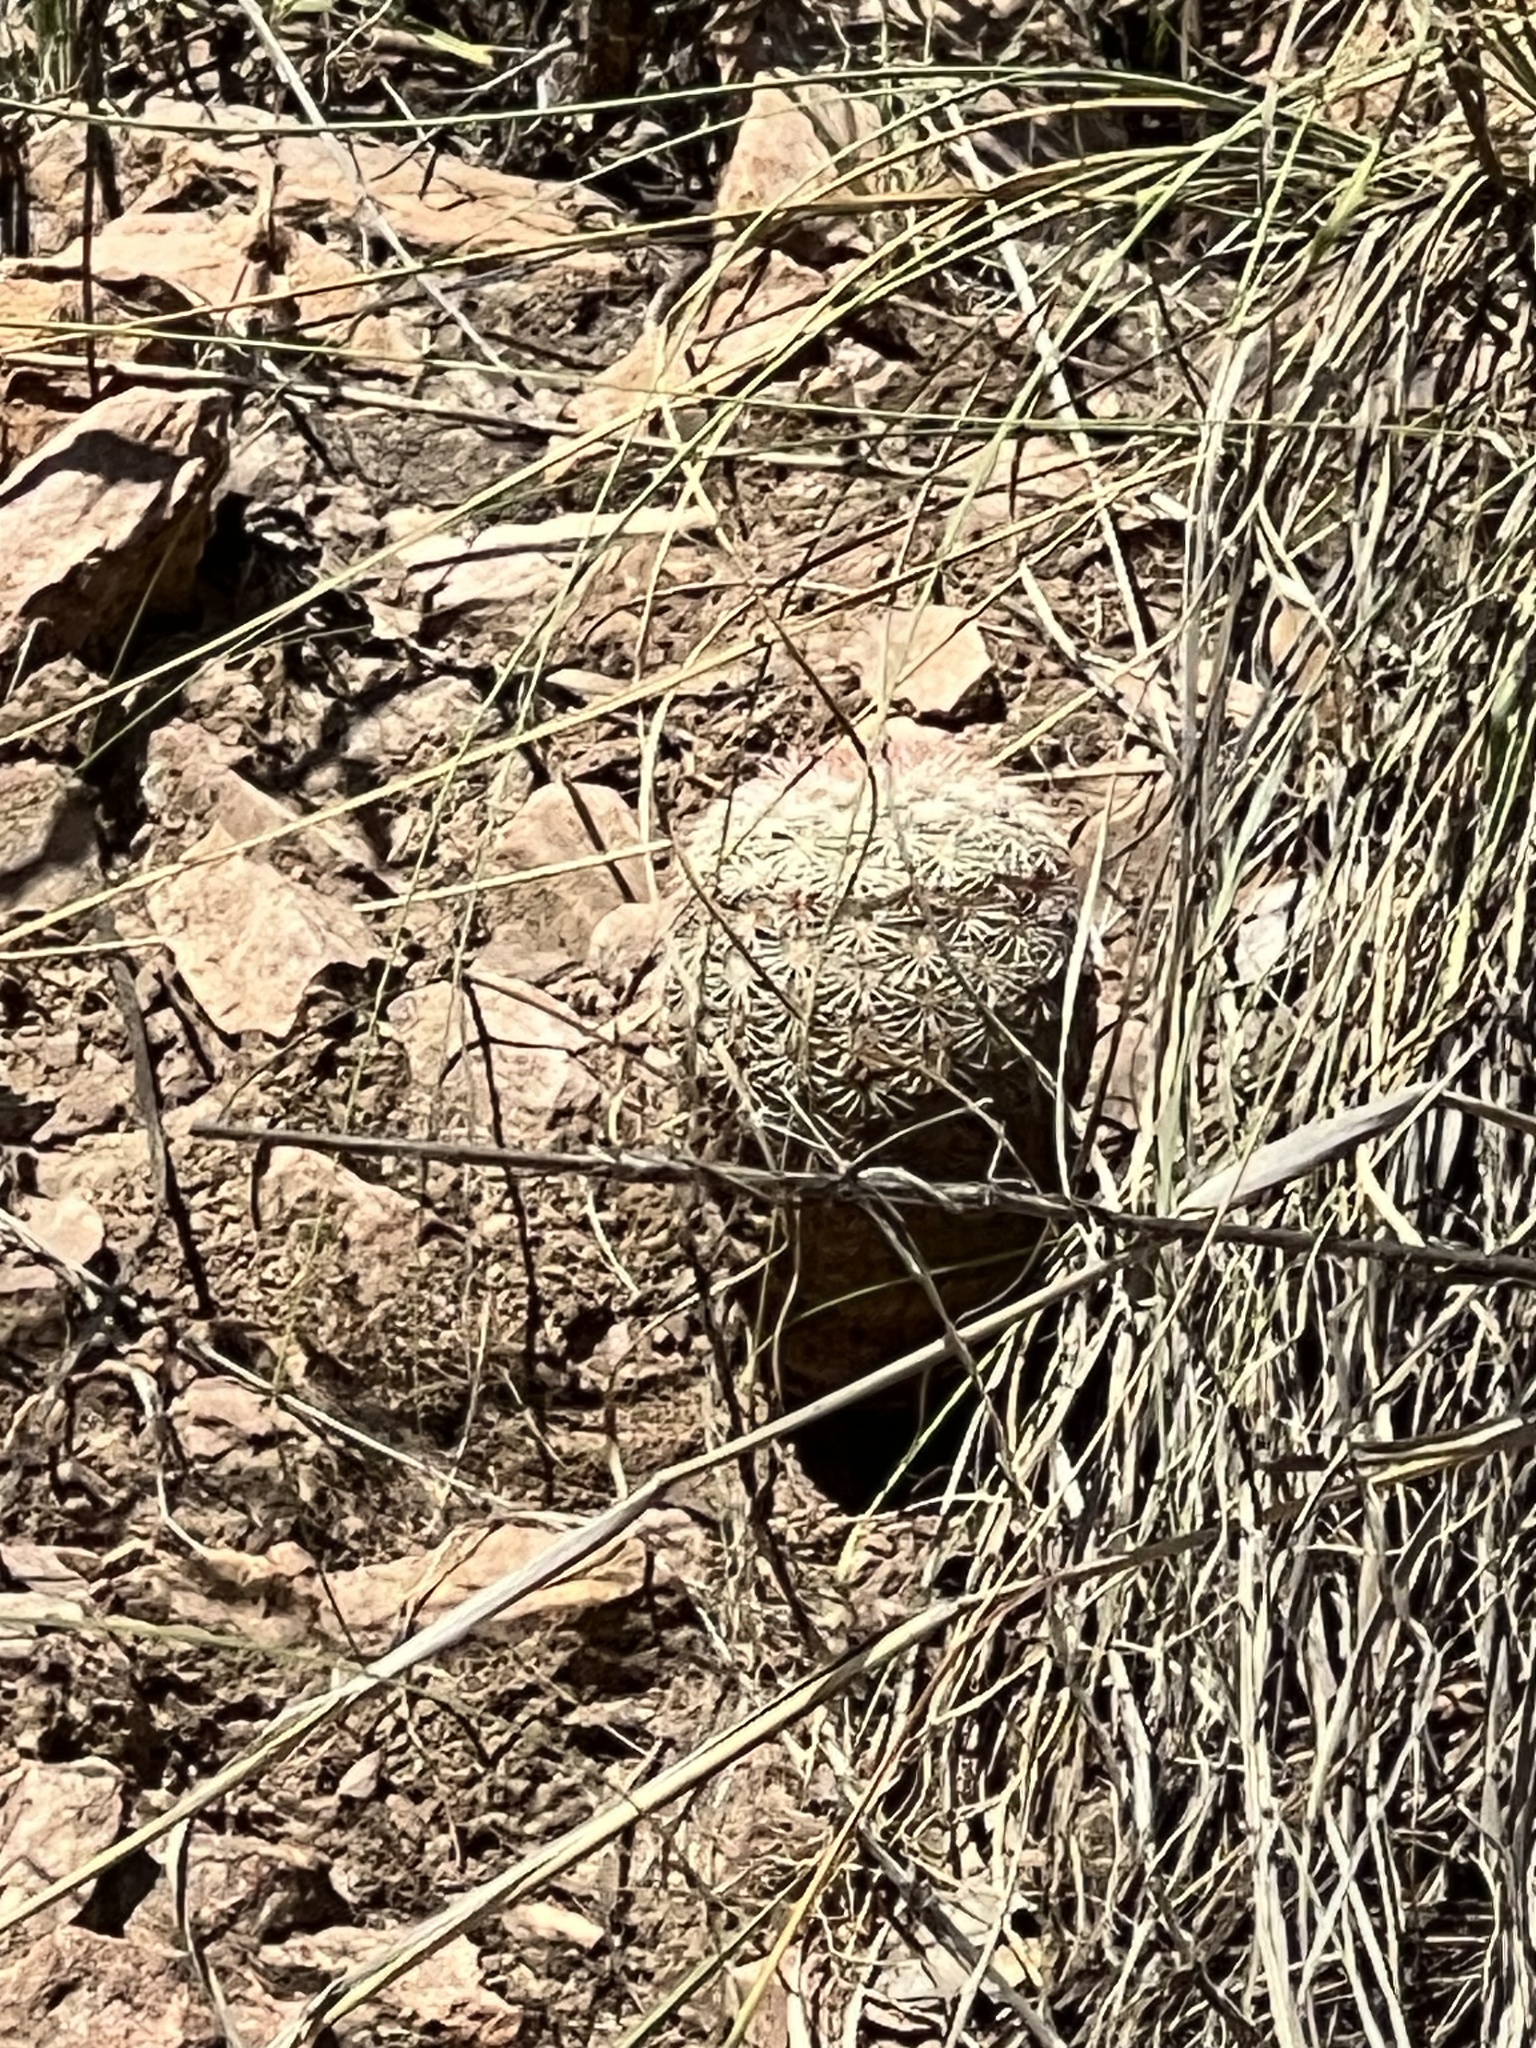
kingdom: Plantae
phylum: Tracheophyta
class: Magnoliopsida
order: Caryophyllales
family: Cactaceae
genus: Echinocereus
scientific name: Echinocereus rigidissimus
